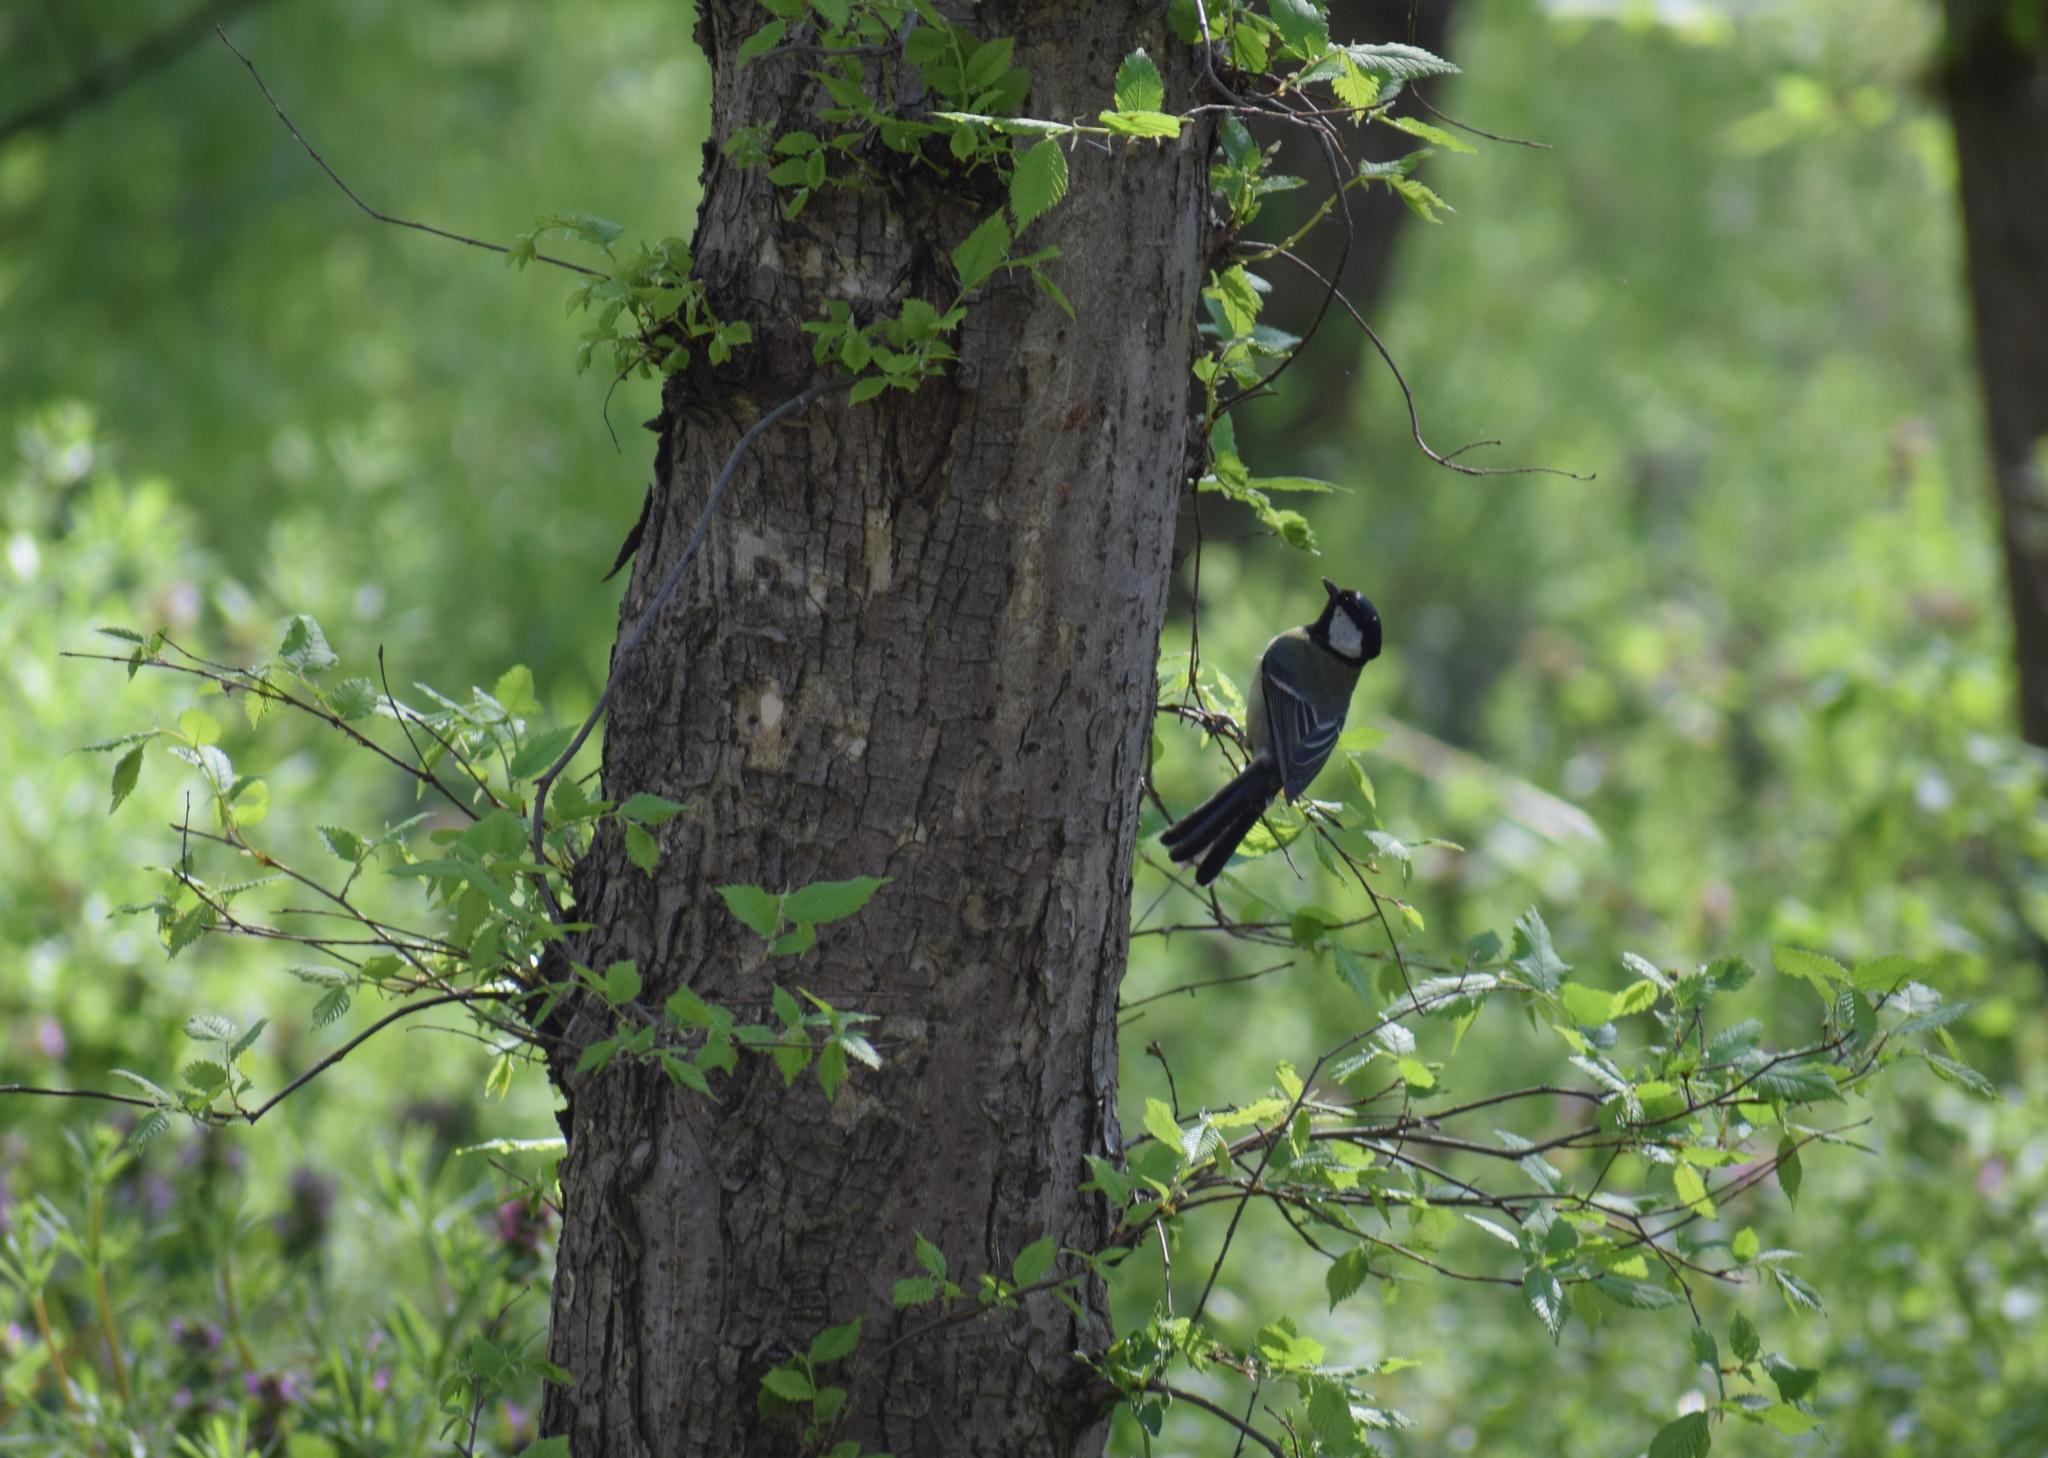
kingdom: Animalia
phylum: Chordata
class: Aves
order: Passeriformes
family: Paridae
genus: Parus
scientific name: Parus major
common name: Great tit
